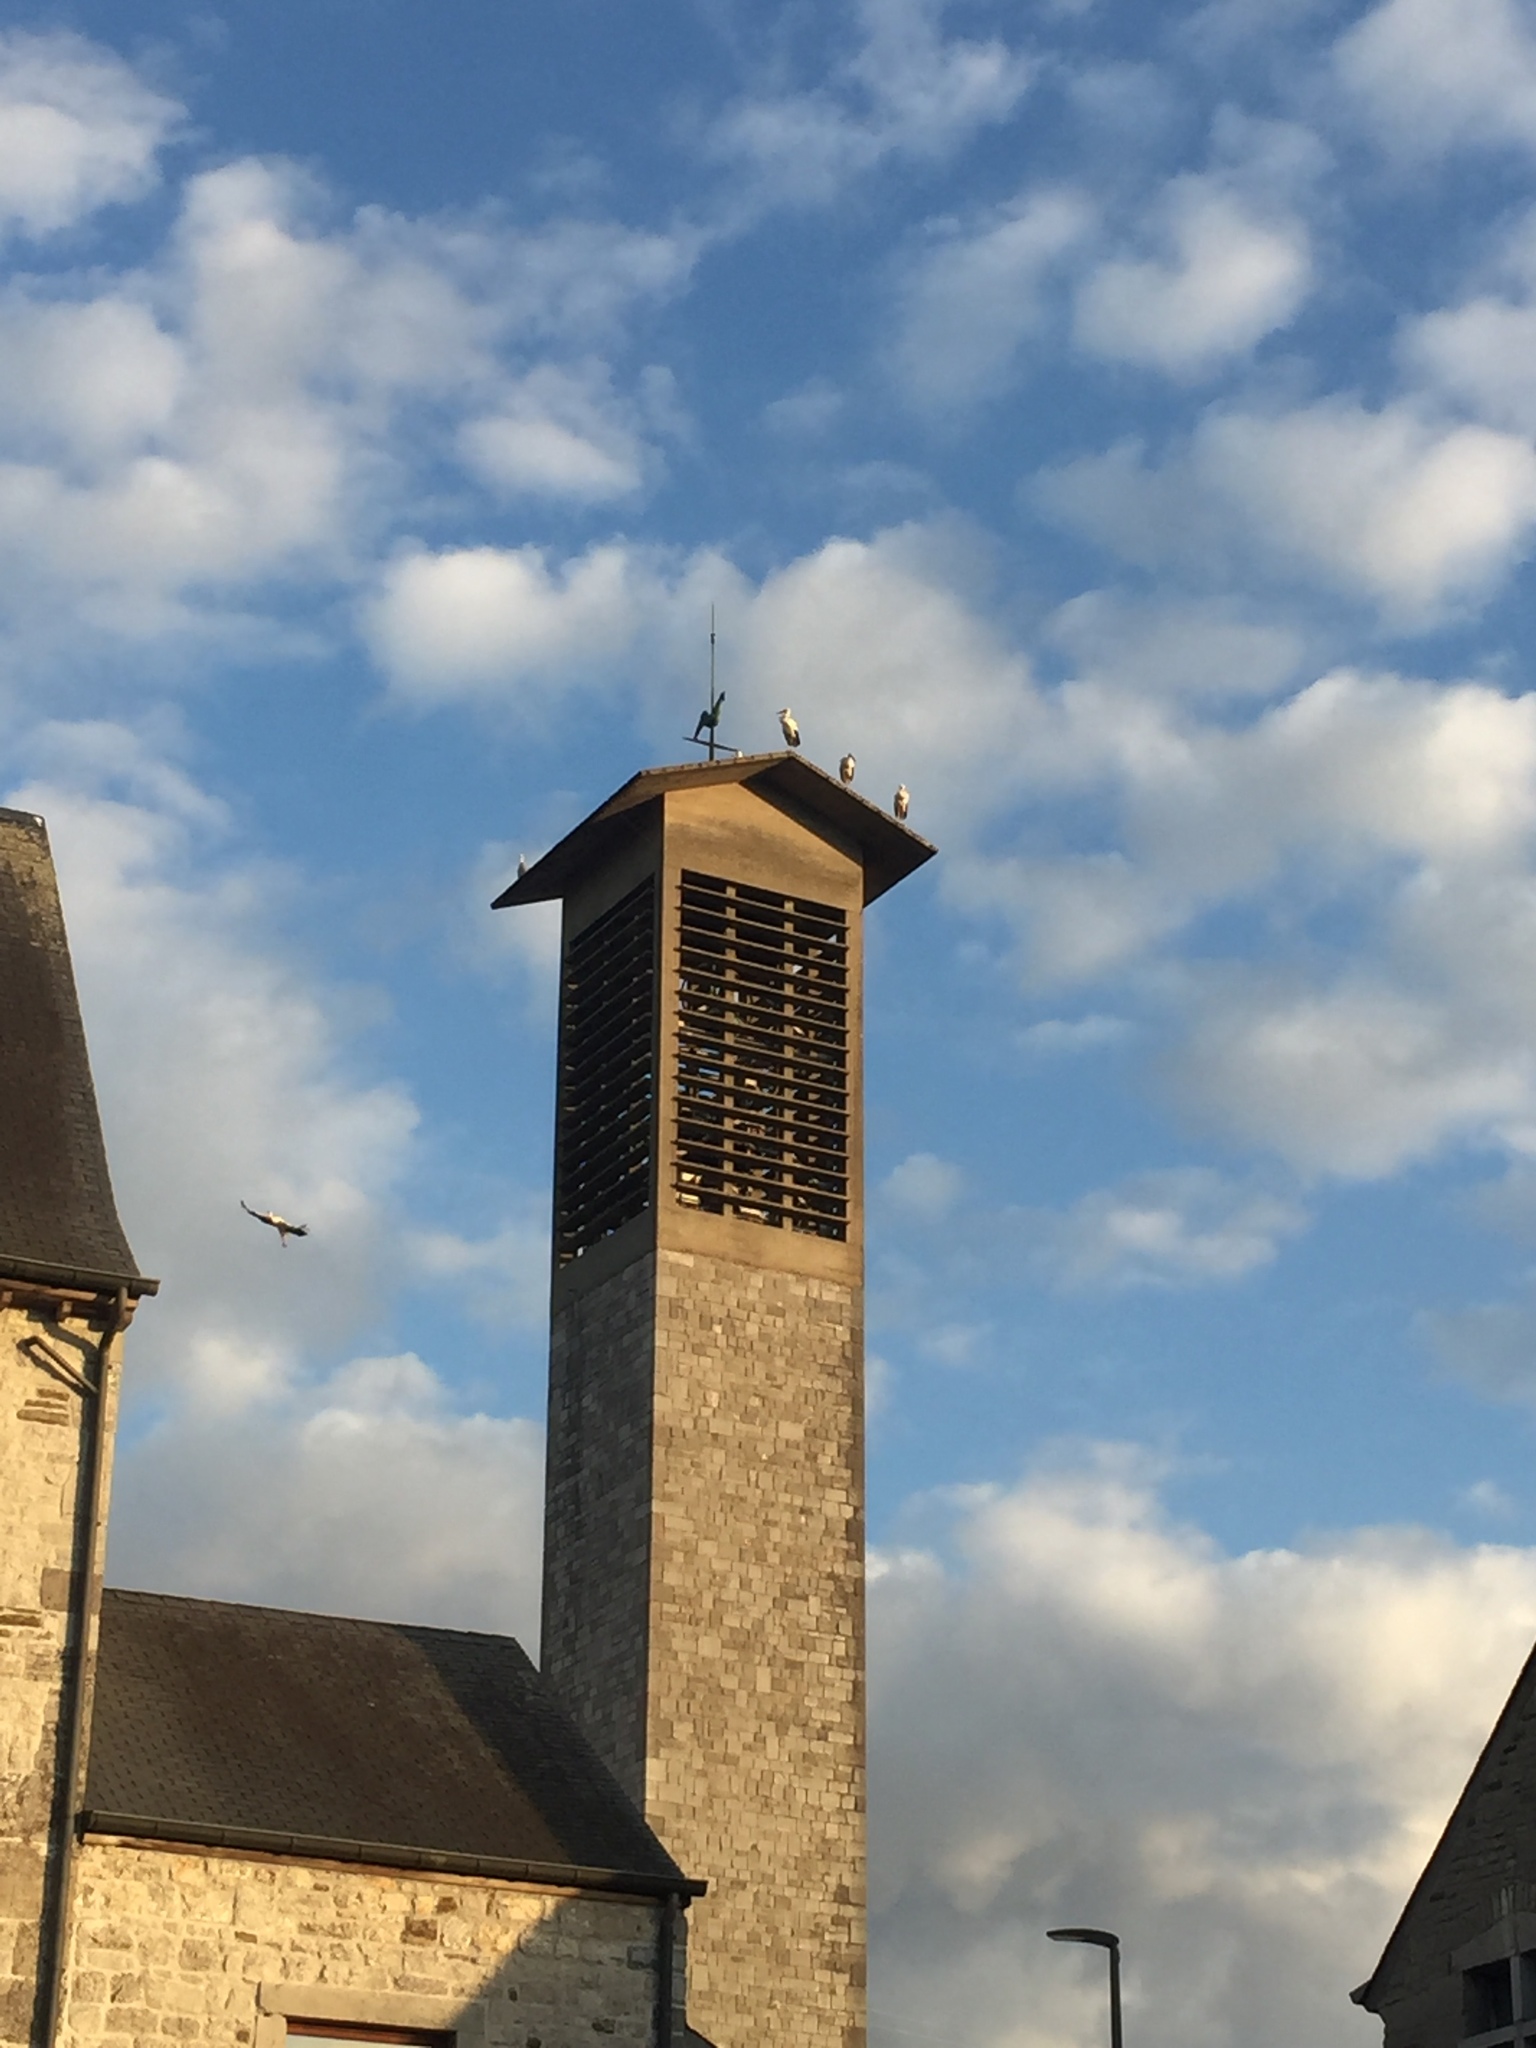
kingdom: Animalia
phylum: Chordata
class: Aves
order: Ciconiiformes
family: Ciconiidae
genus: Ciconia
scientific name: Ciconia ciconia
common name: White stork
